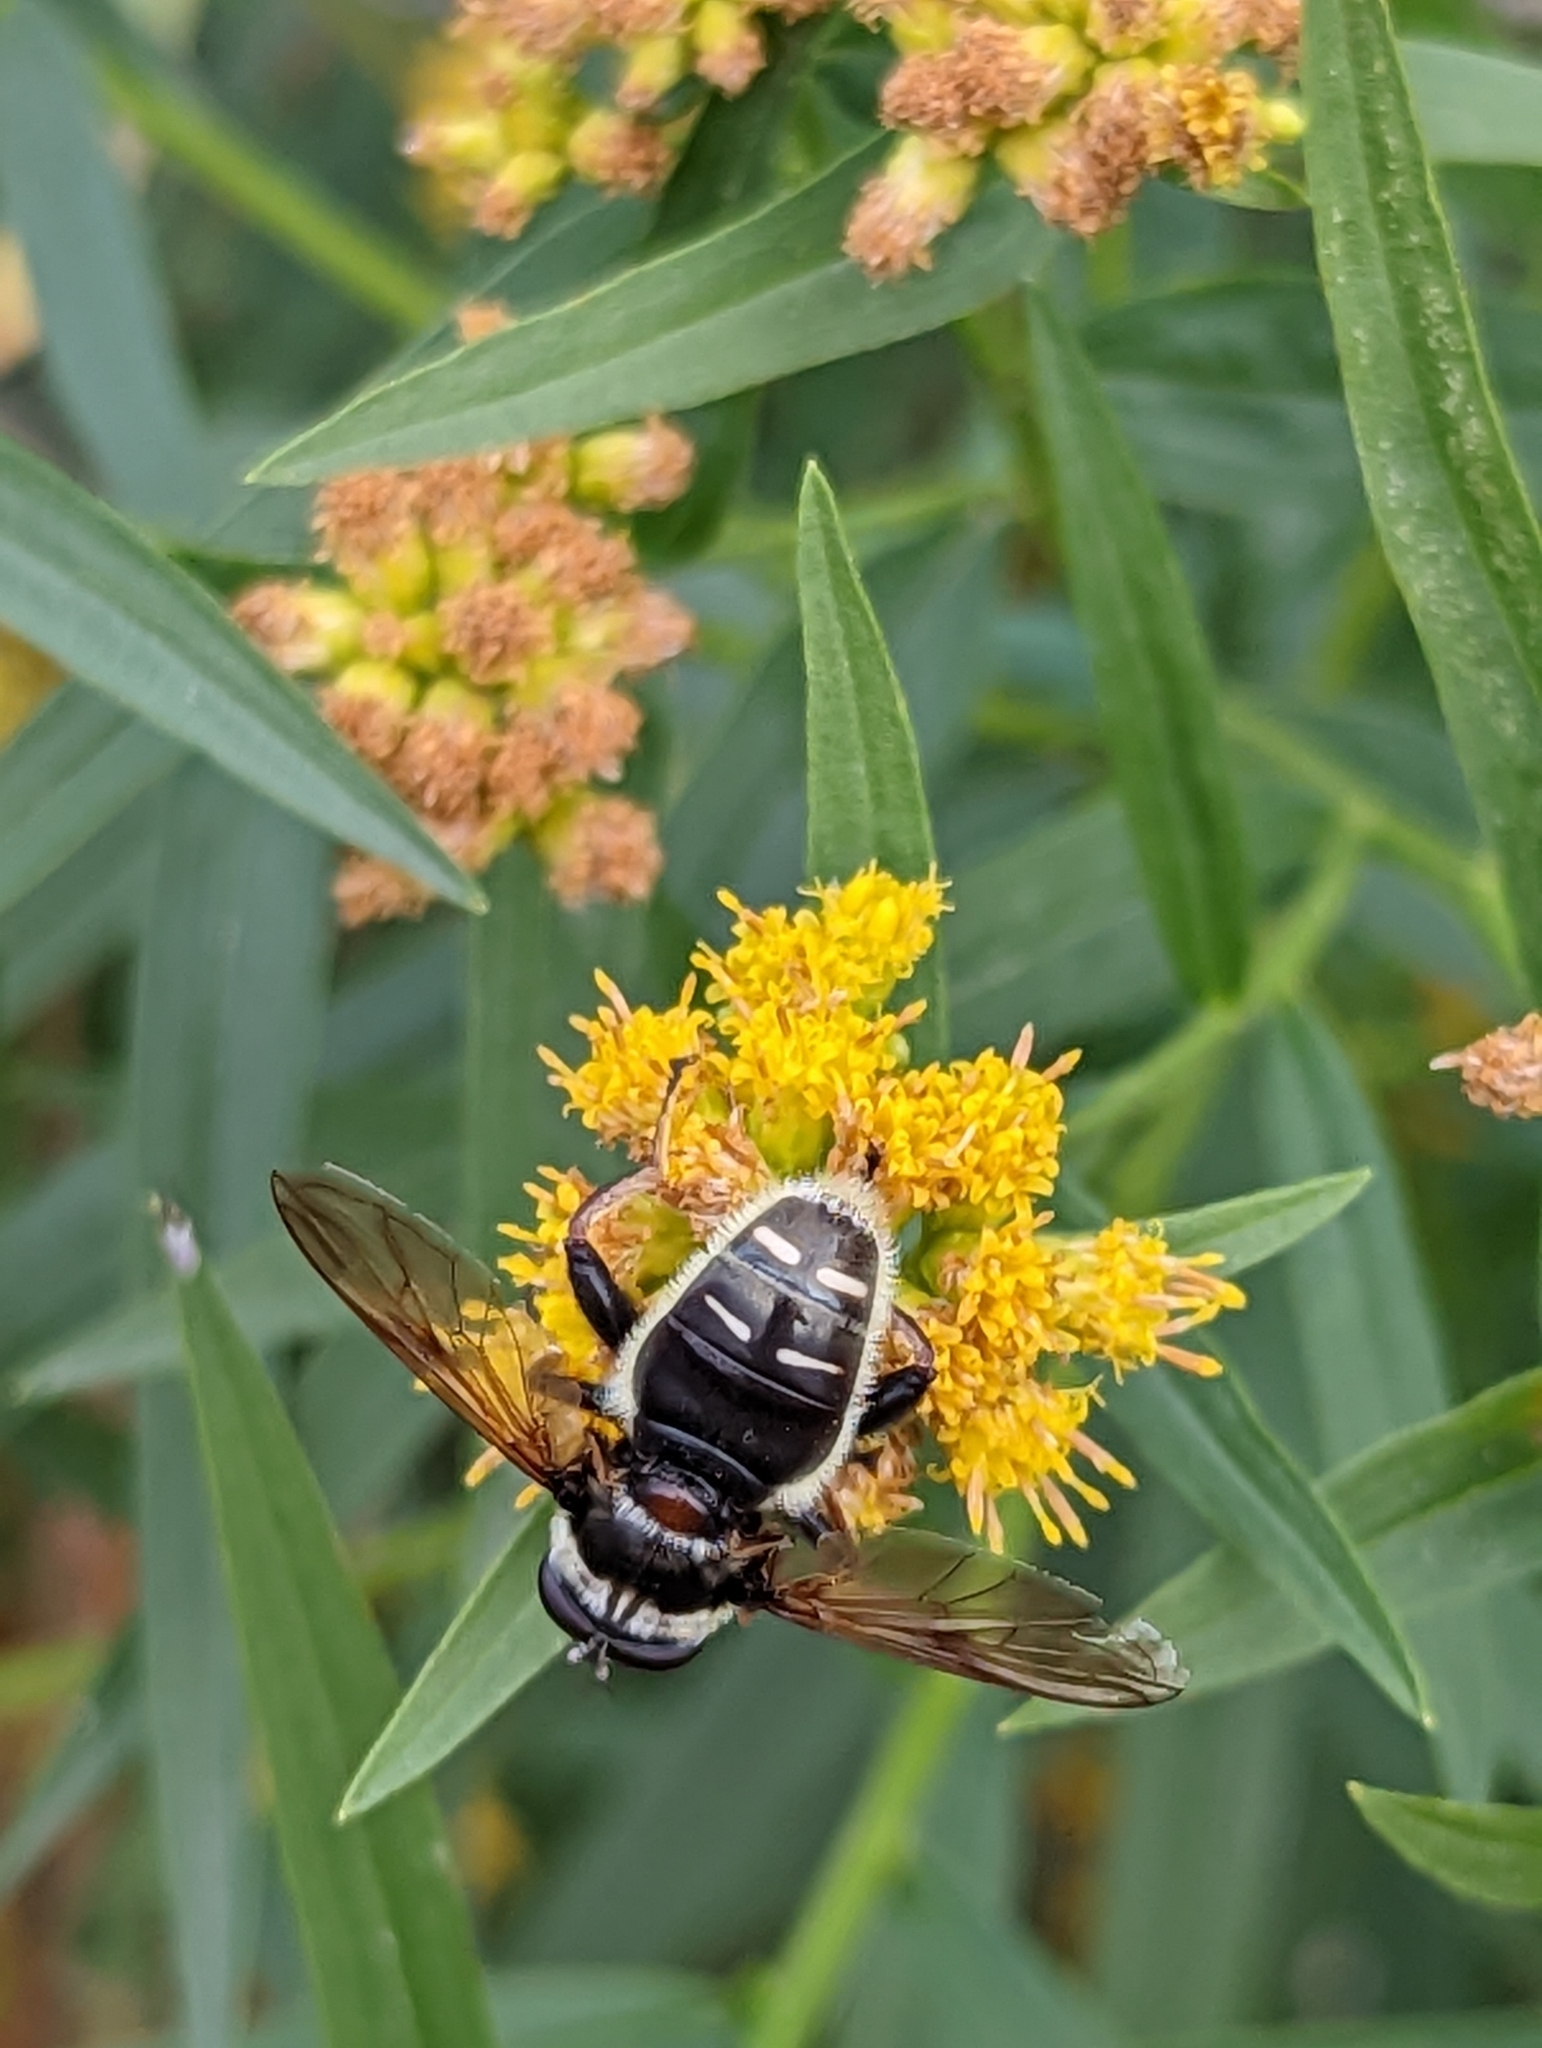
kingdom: Animalia
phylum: Arthropoda
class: Insecta
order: Diptera
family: Syrphidae
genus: Sericomyia
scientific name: Sericomyia militaris
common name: Narrow-banded pond fly
